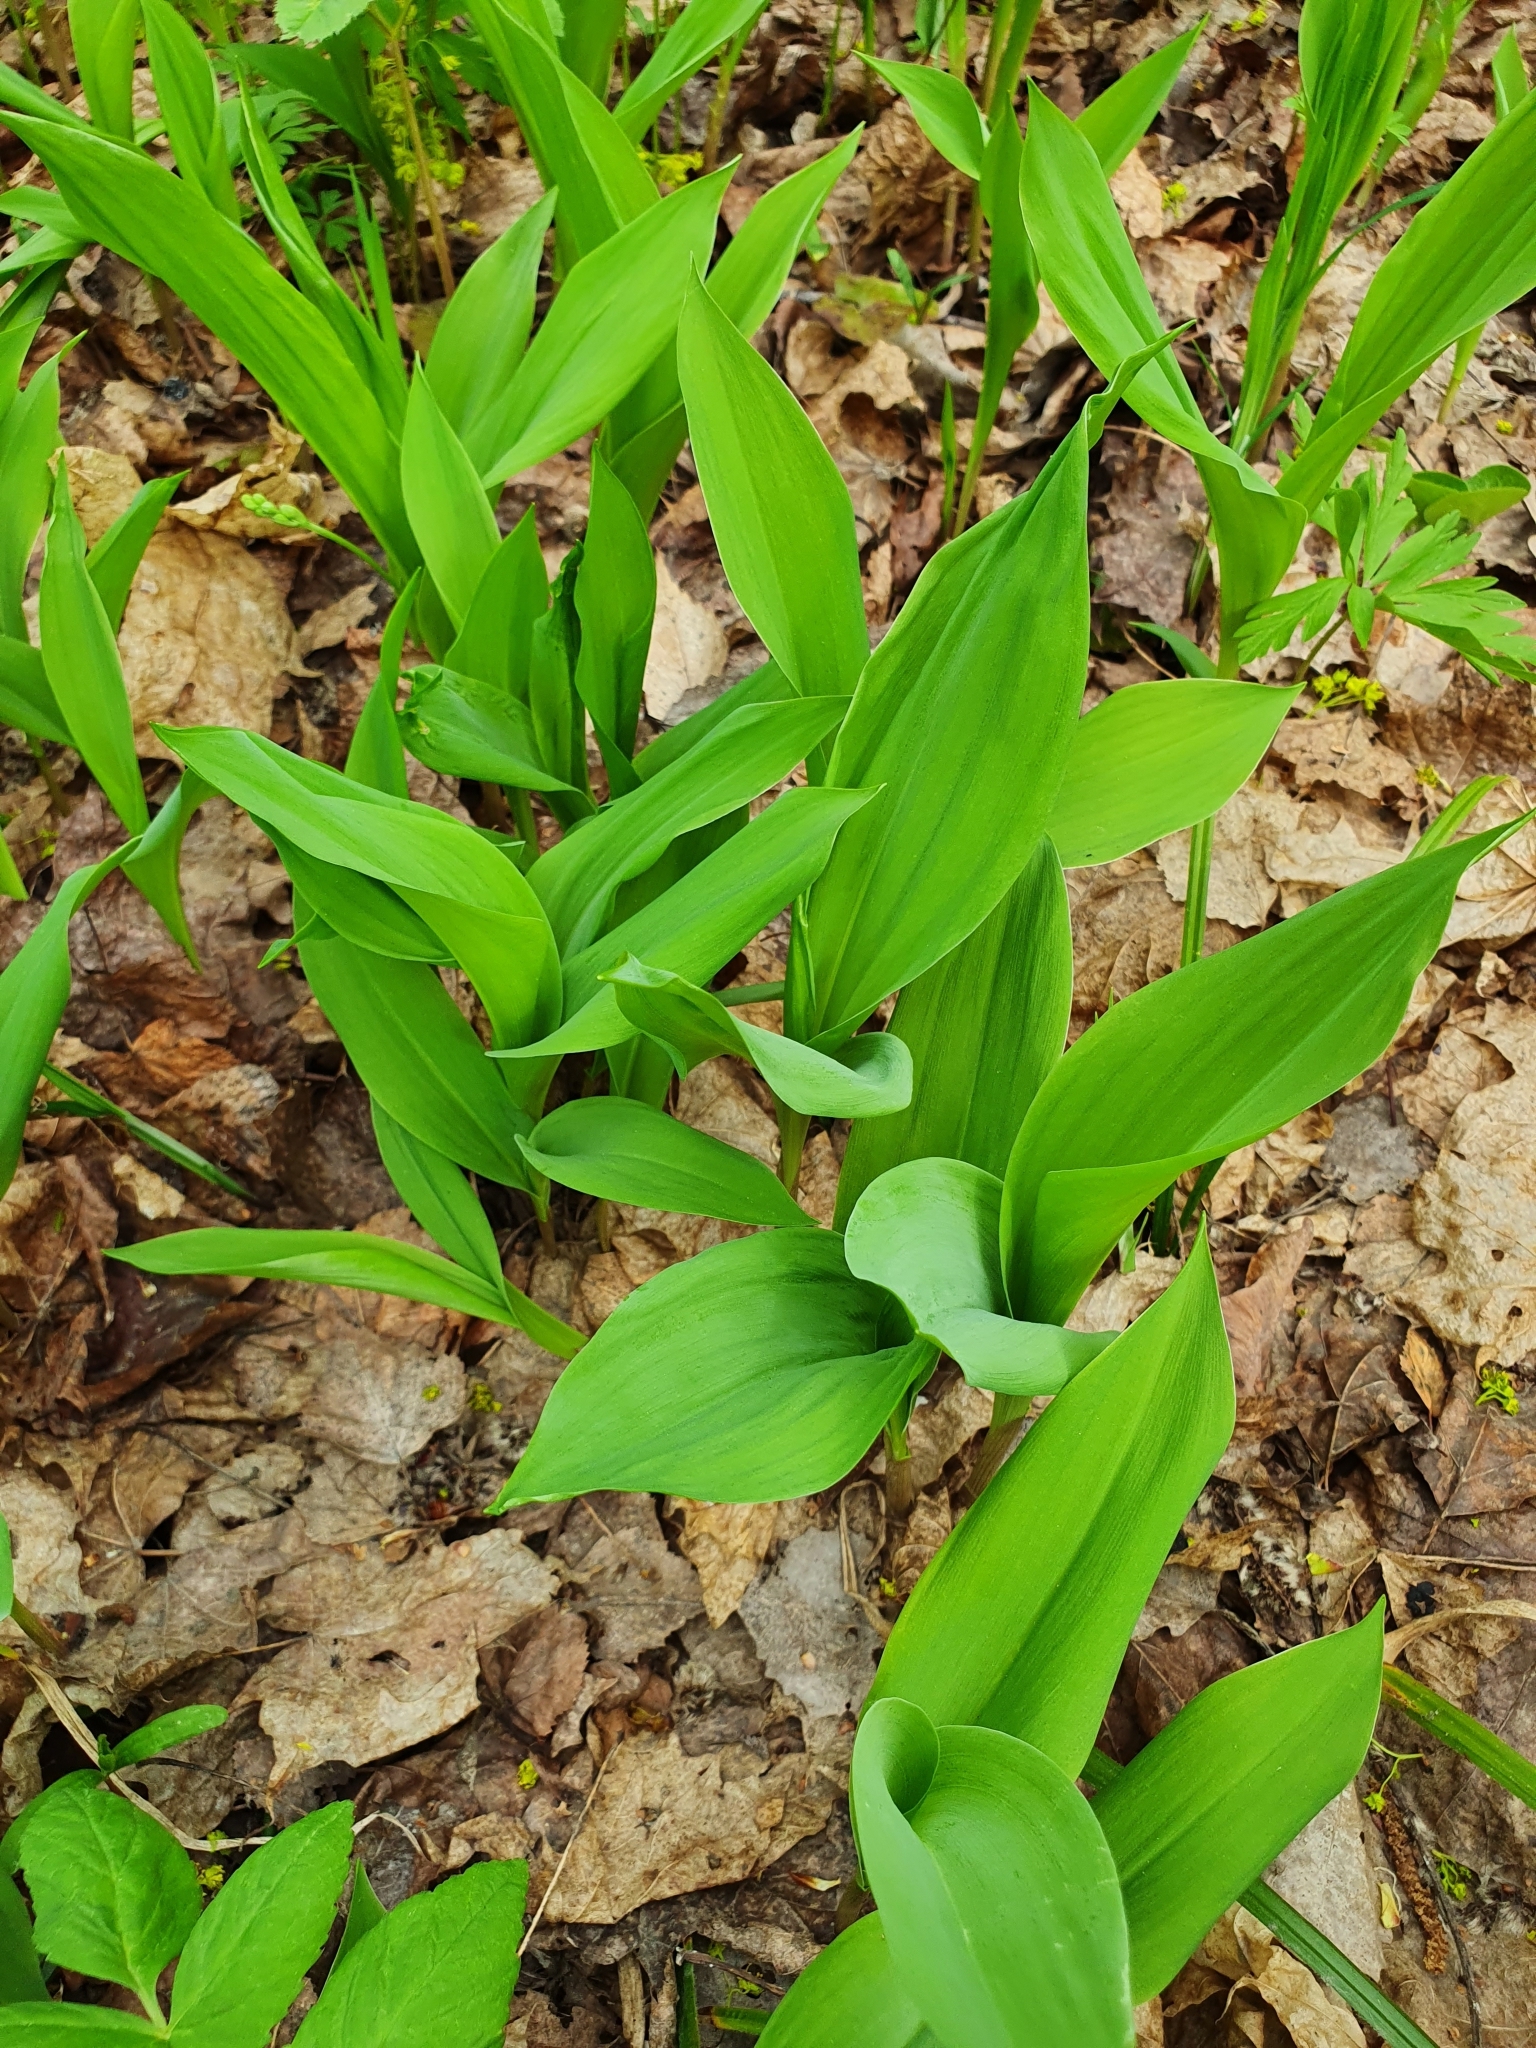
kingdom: Plantae
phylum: Tracheophyta
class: Liliopsida
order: Asparagales
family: Asparagaceae
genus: Convallaria
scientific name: Convallaria majalis
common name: Lily-of-the-valley
